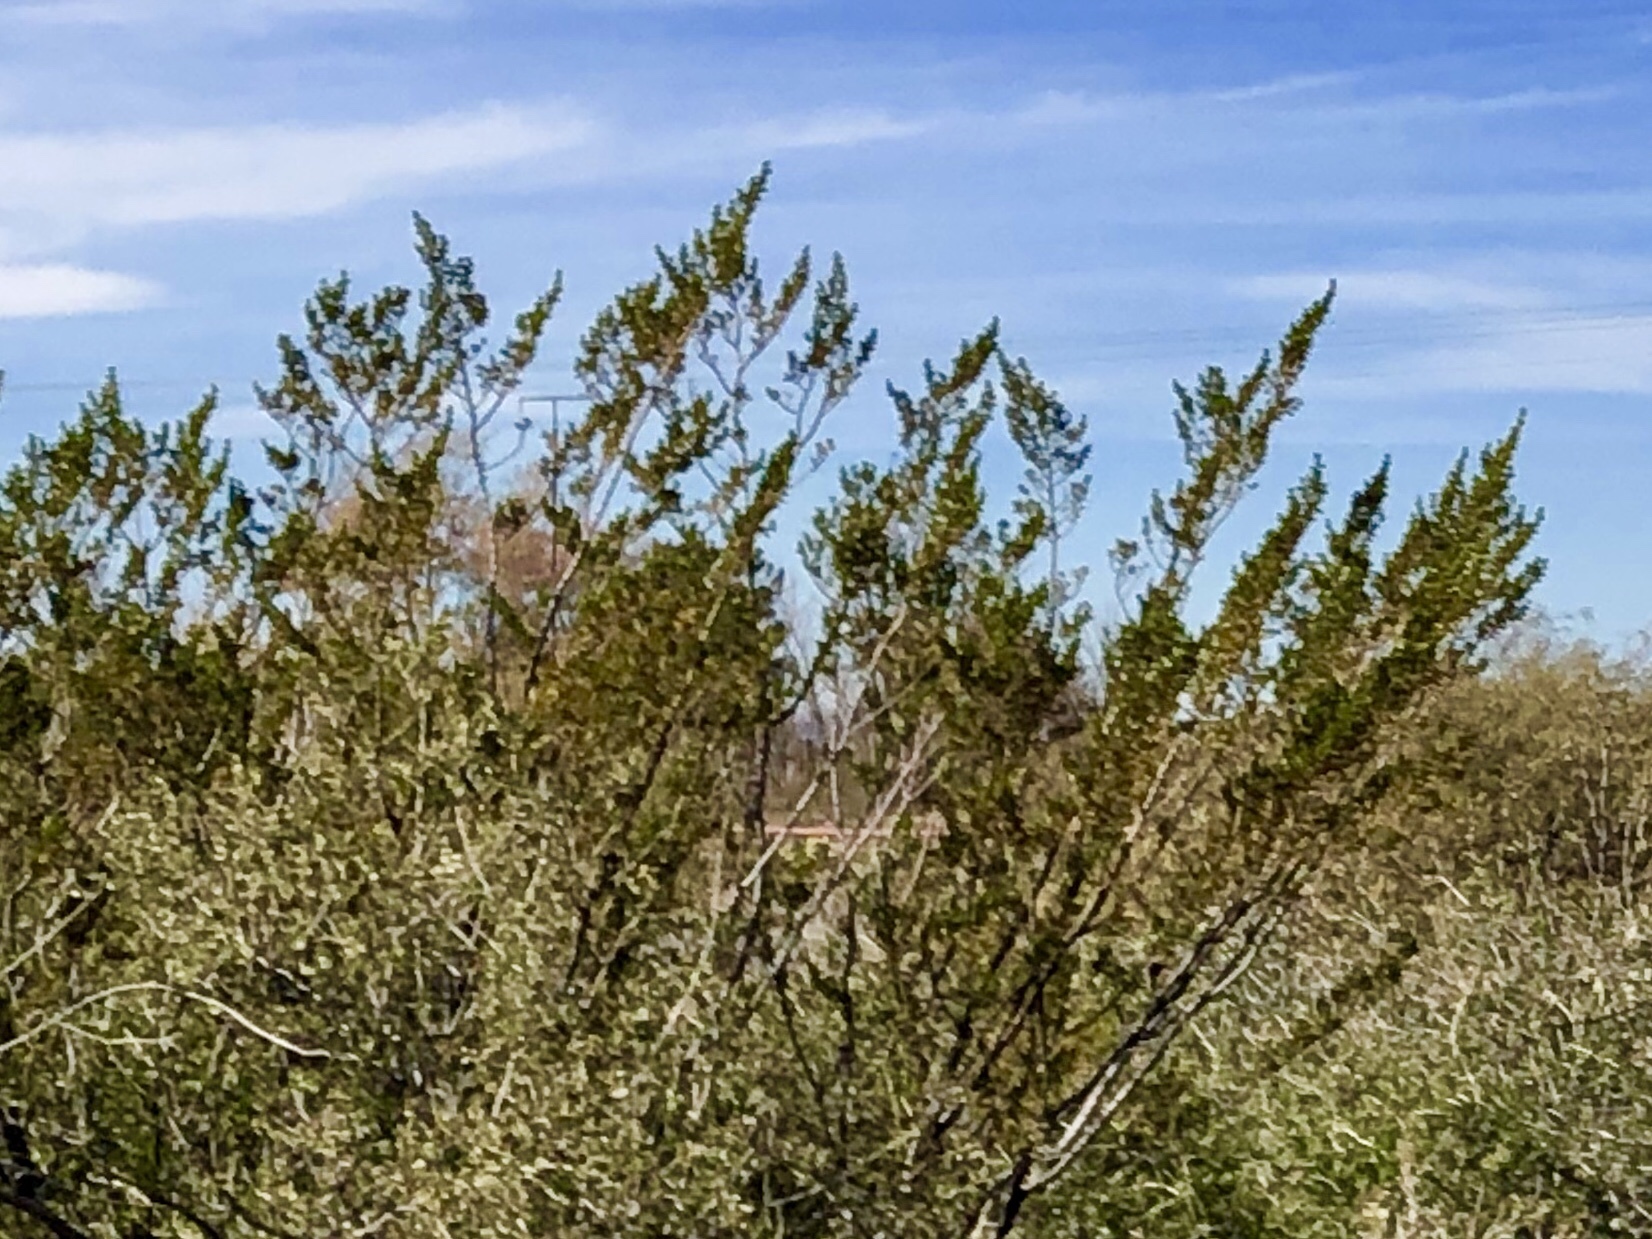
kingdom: Plantae
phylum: Tracheophyta
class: Magnoliopsida
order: Zygophyllales
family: Zygophyllaceae
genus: Larrea
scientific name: Larrea tridentata
